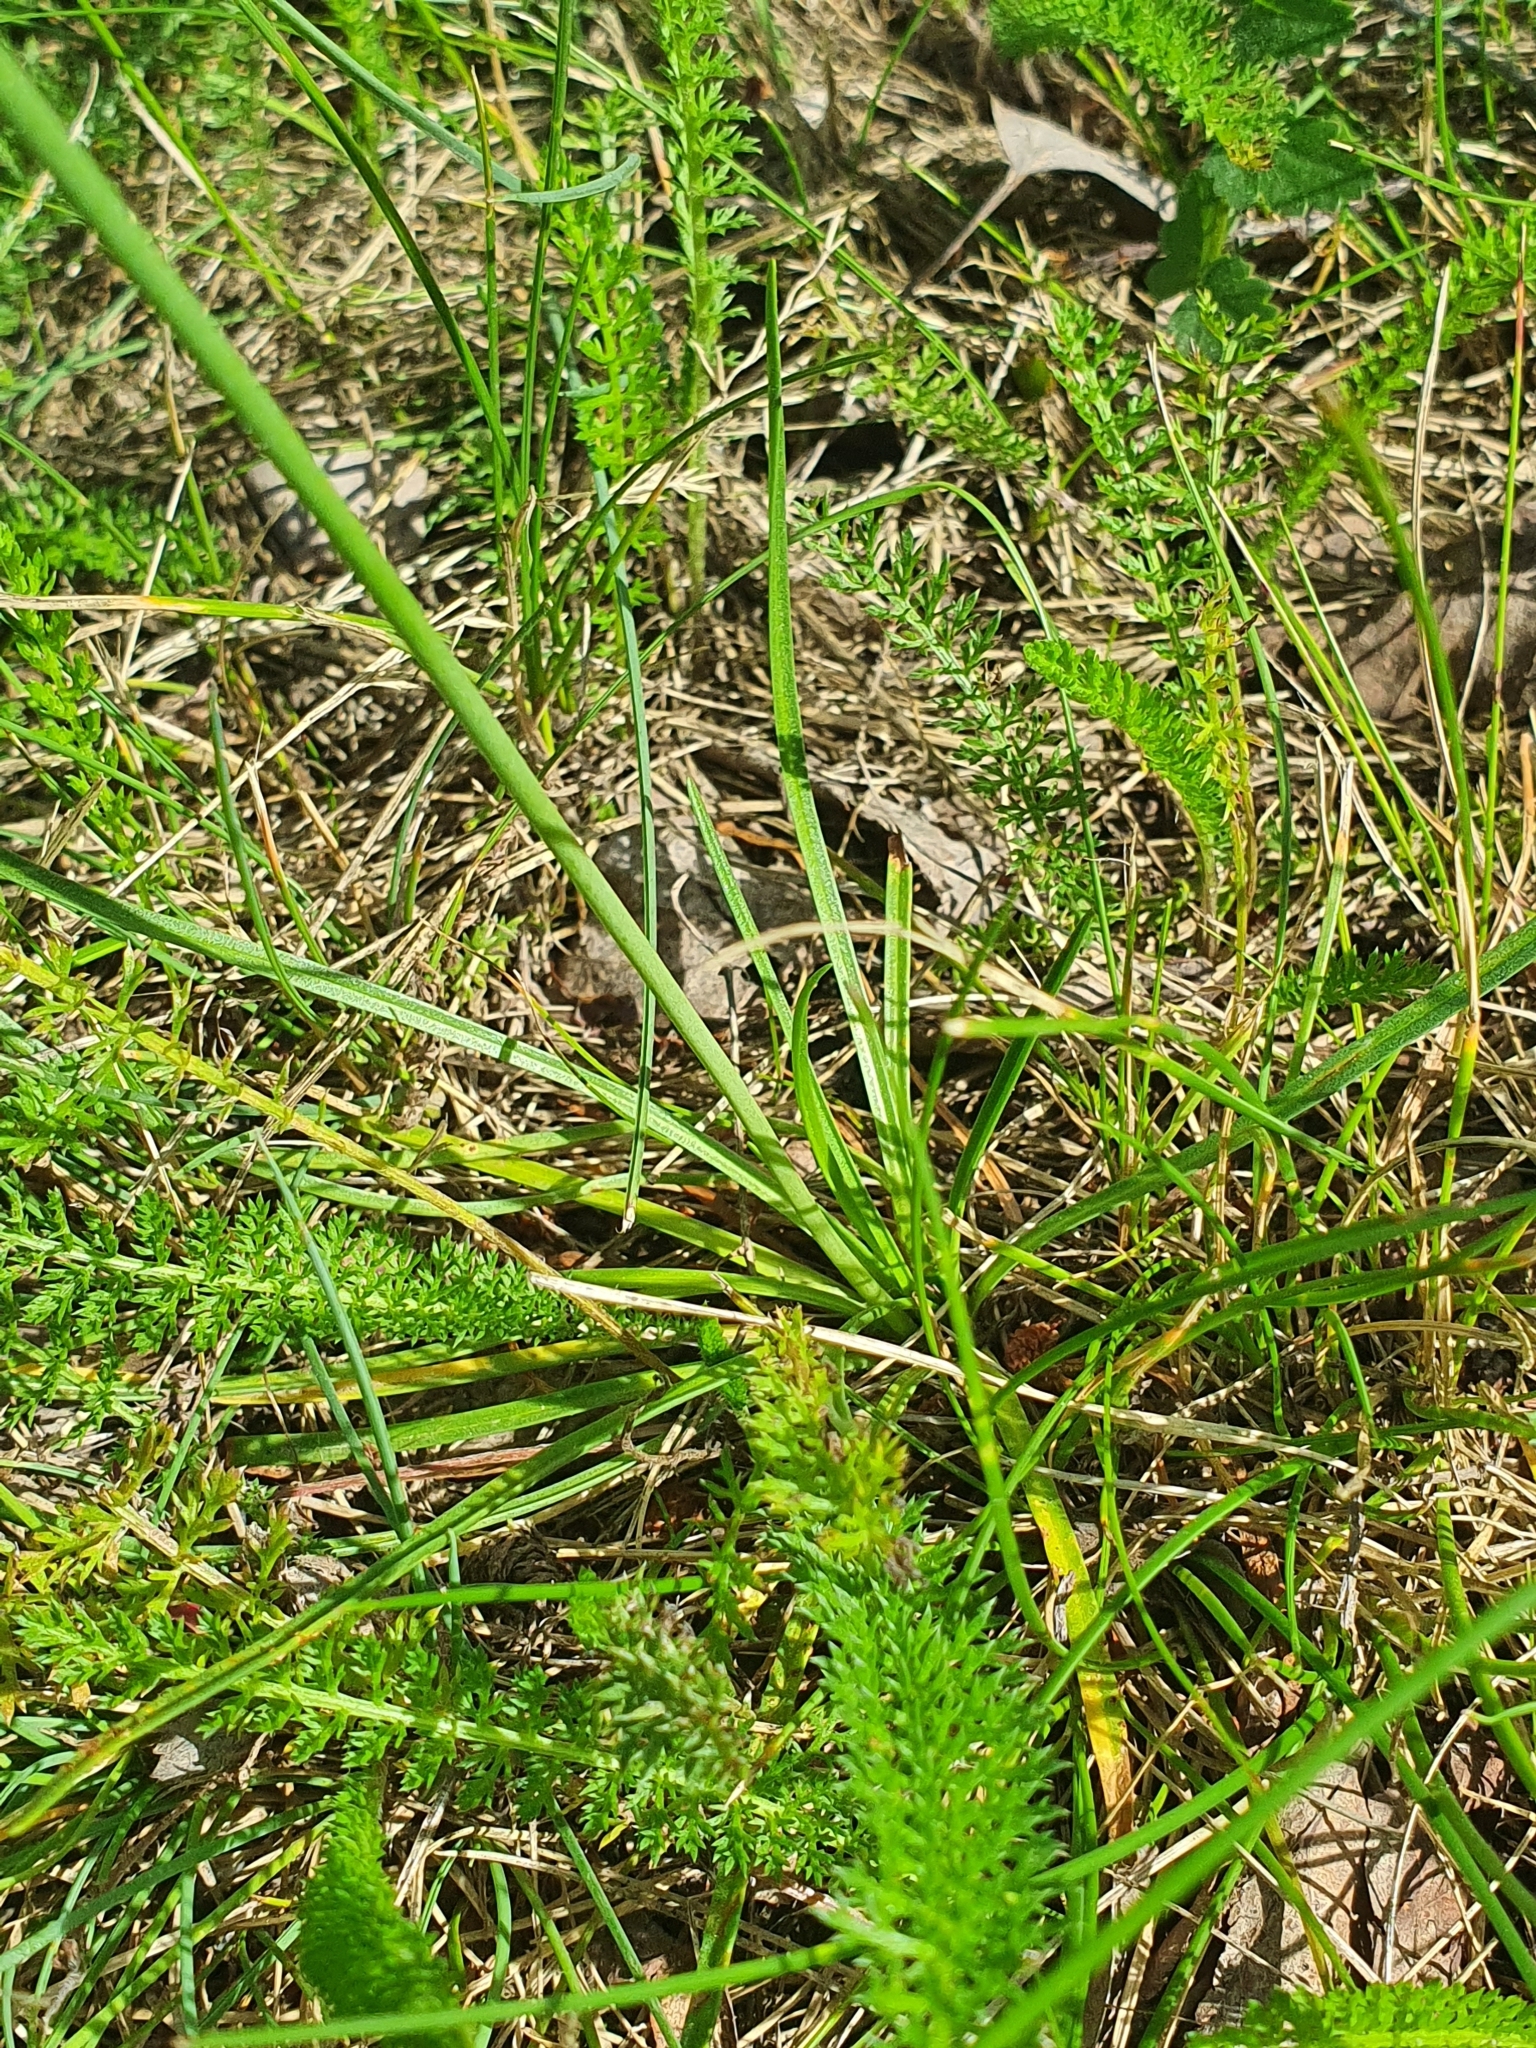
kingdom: Plantae
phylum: Tracheophyta
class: Magnoliopsida
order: Caryophyllales
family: Plumbaginaceae
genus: Armeria
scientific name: Armeria maritima
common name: Thrift
